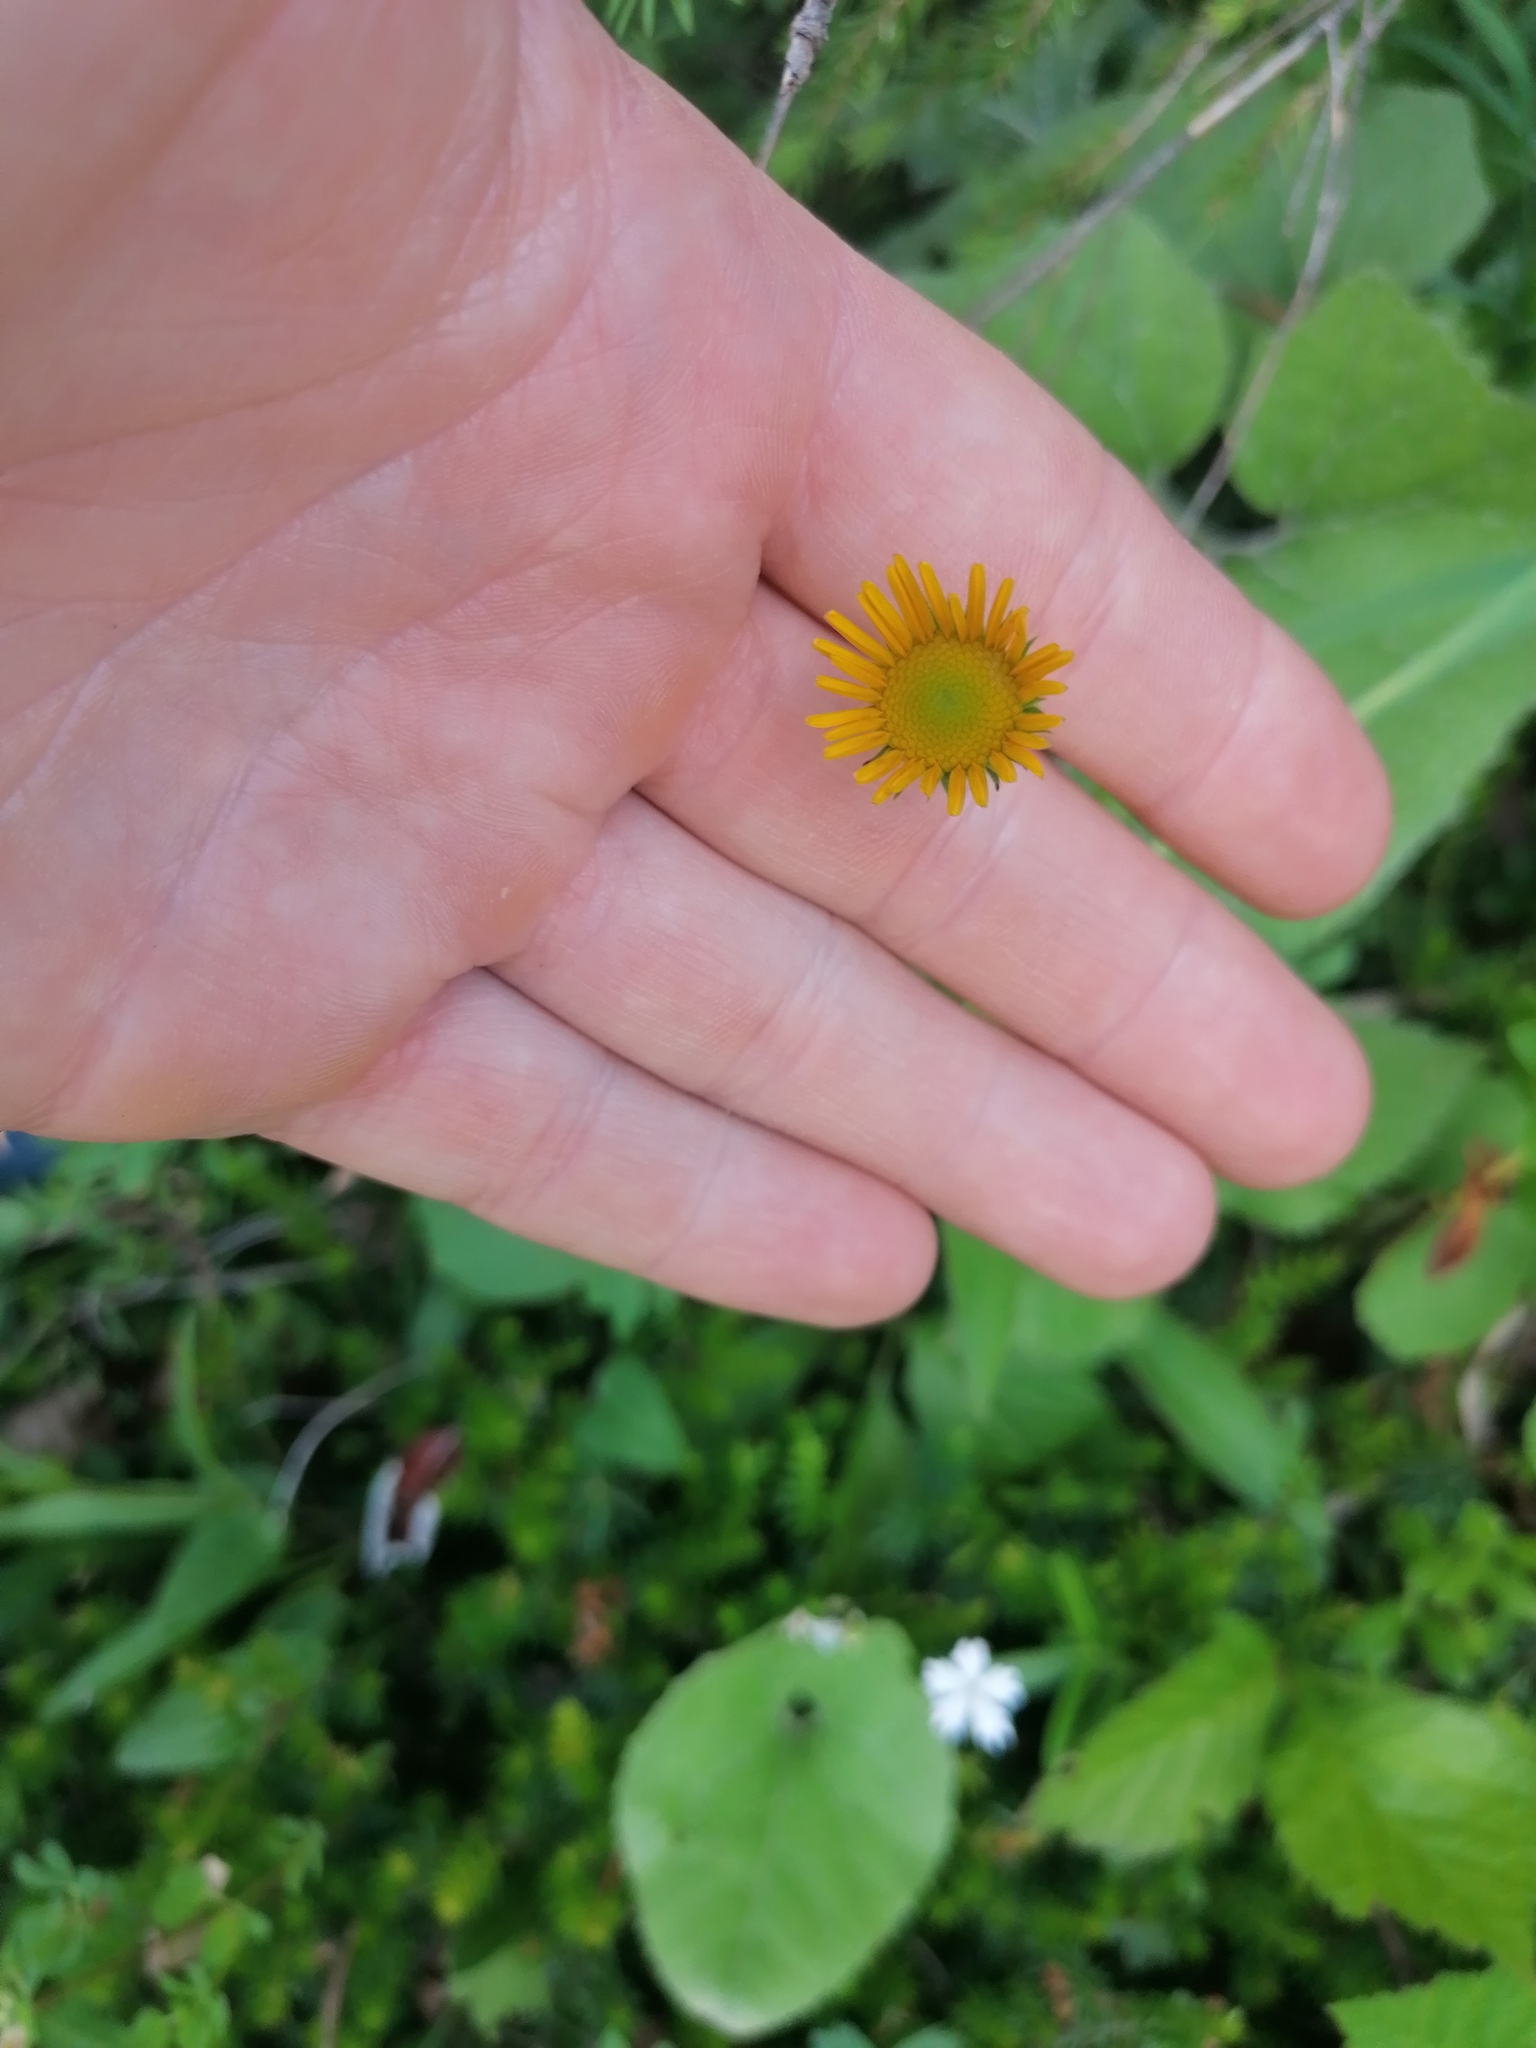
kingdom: Plantae
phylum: Tracheophyta
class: Magnoliopsida
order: Asterales
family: Asteraceae
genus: Buphthalmum
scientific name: Buphthalmum salicifolium
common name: Willow-leaved yellow-oxeye
